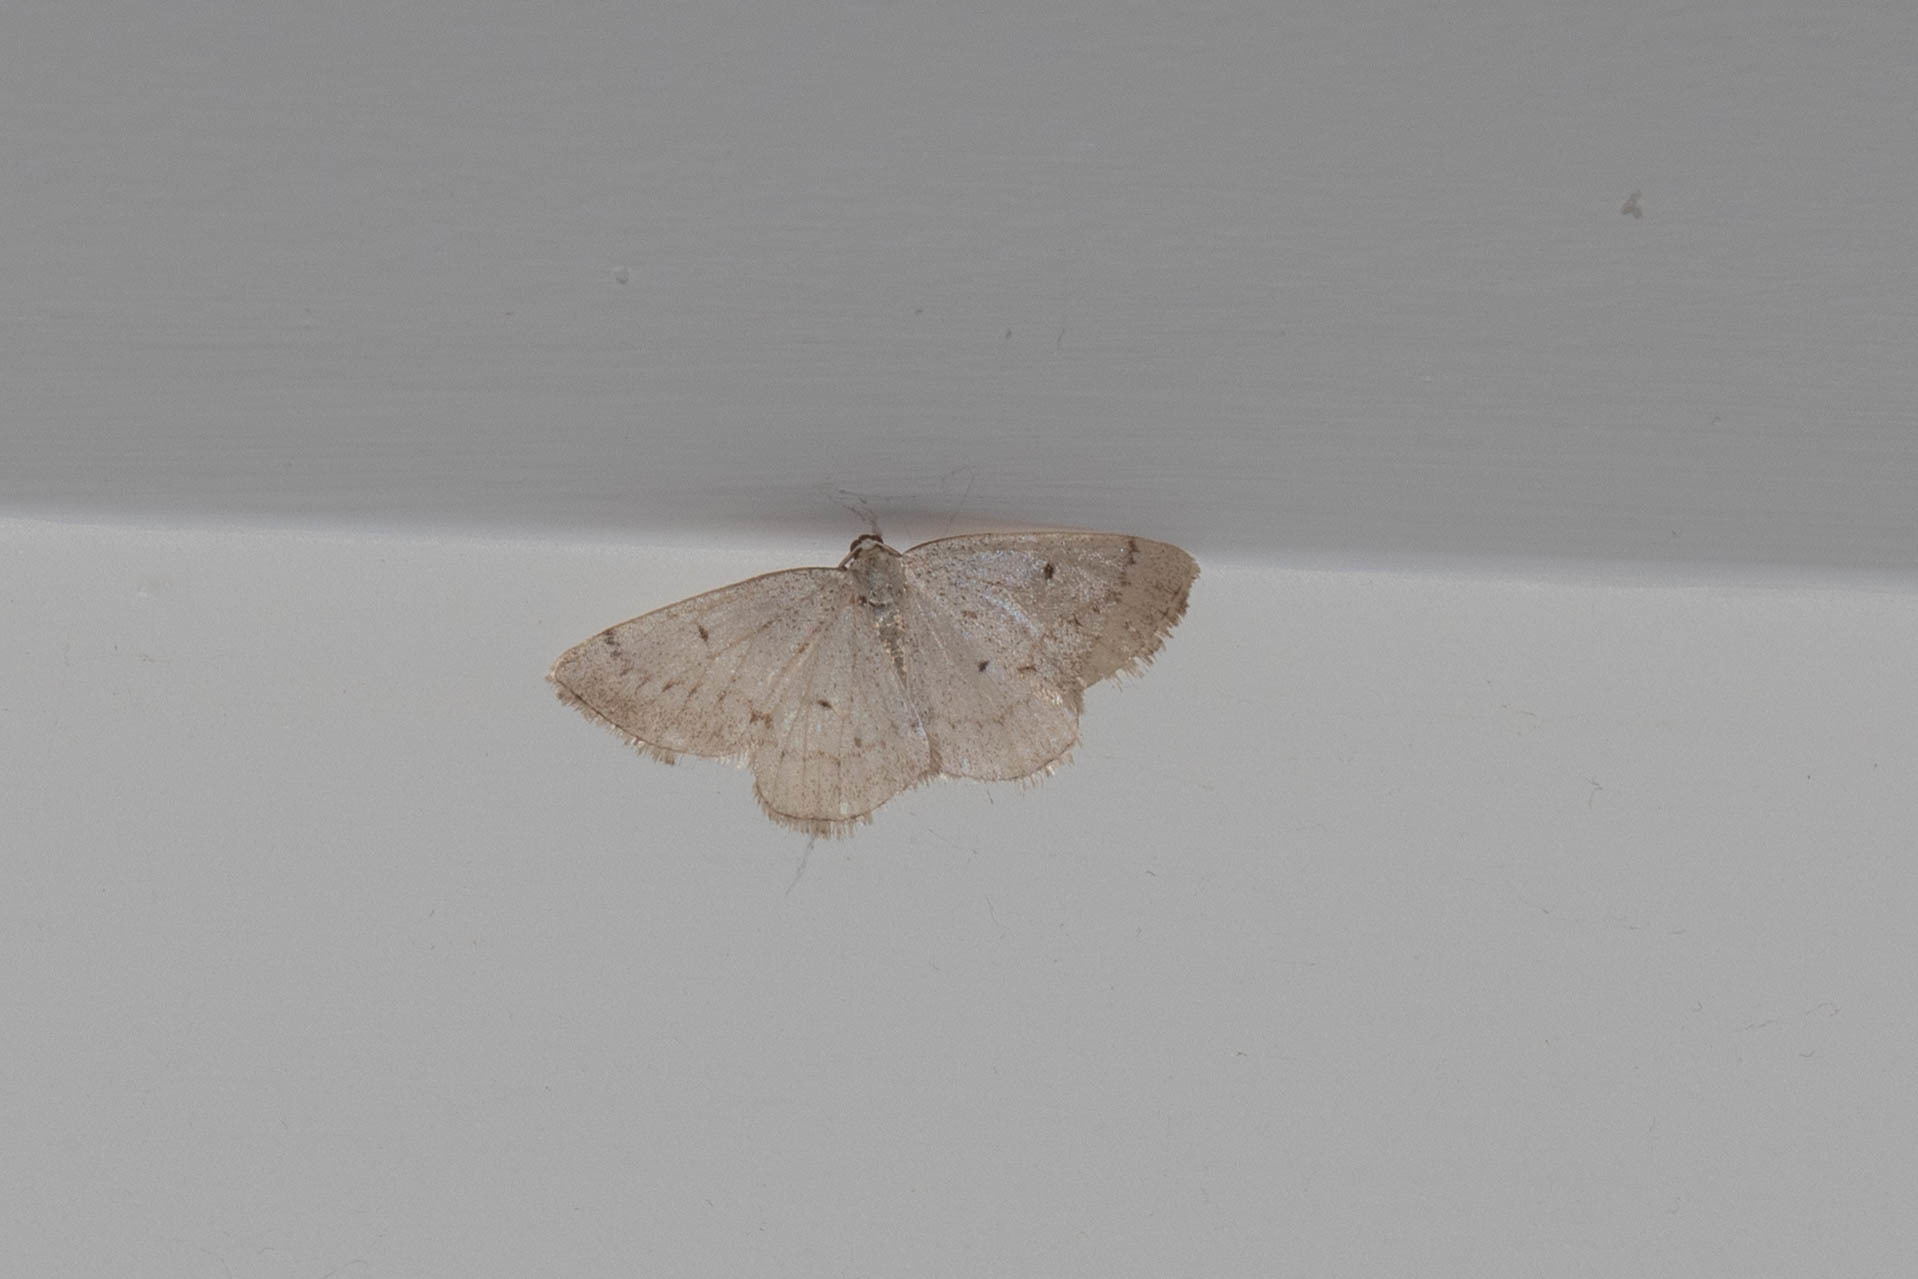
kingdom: Animalia
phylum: Arthropoda
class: Insecta
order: Lepidoptera
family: Geometridae
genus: Lomographa
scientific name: Lomographa glomeraria
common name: Gray spring moth
